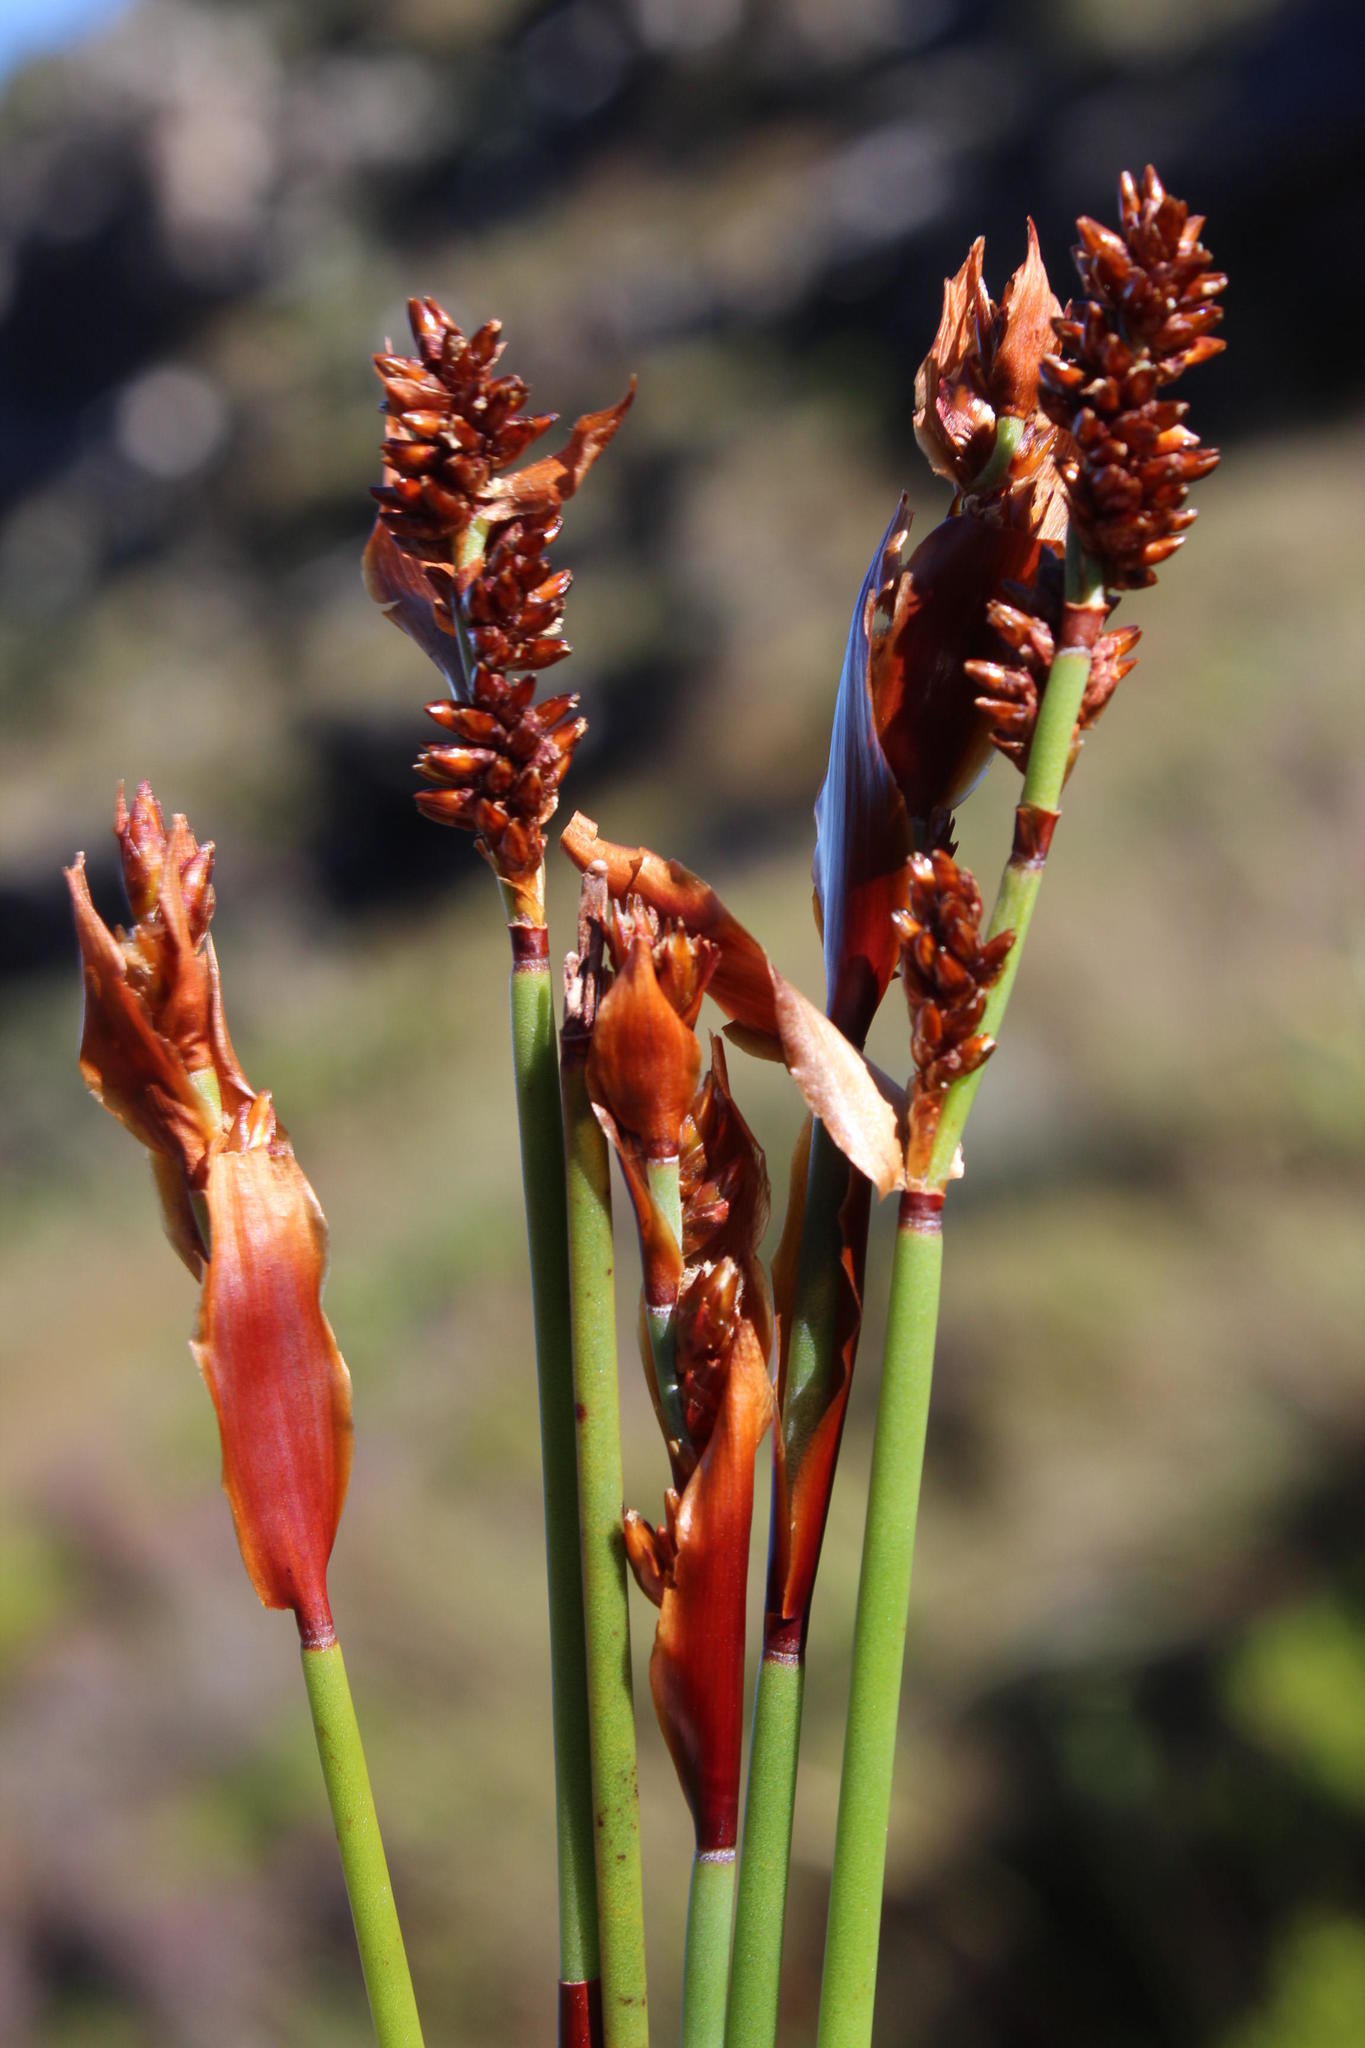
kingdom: Plantae
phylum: Tracheophyta
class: Liliopsida
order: Poales
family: Restionaceae
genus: Elegia
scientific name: Elegia ebracteata
